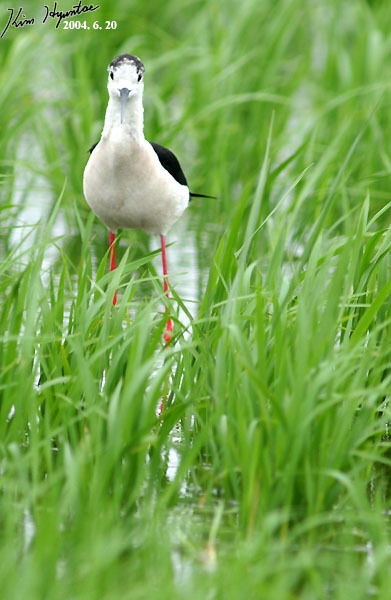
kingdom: Animalia
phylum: Chordata
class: Aves
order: Charadriiformes
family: Recurvirostridae
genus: Himantopus
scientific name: Himantopus himantopus
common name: Black-winged stilt
